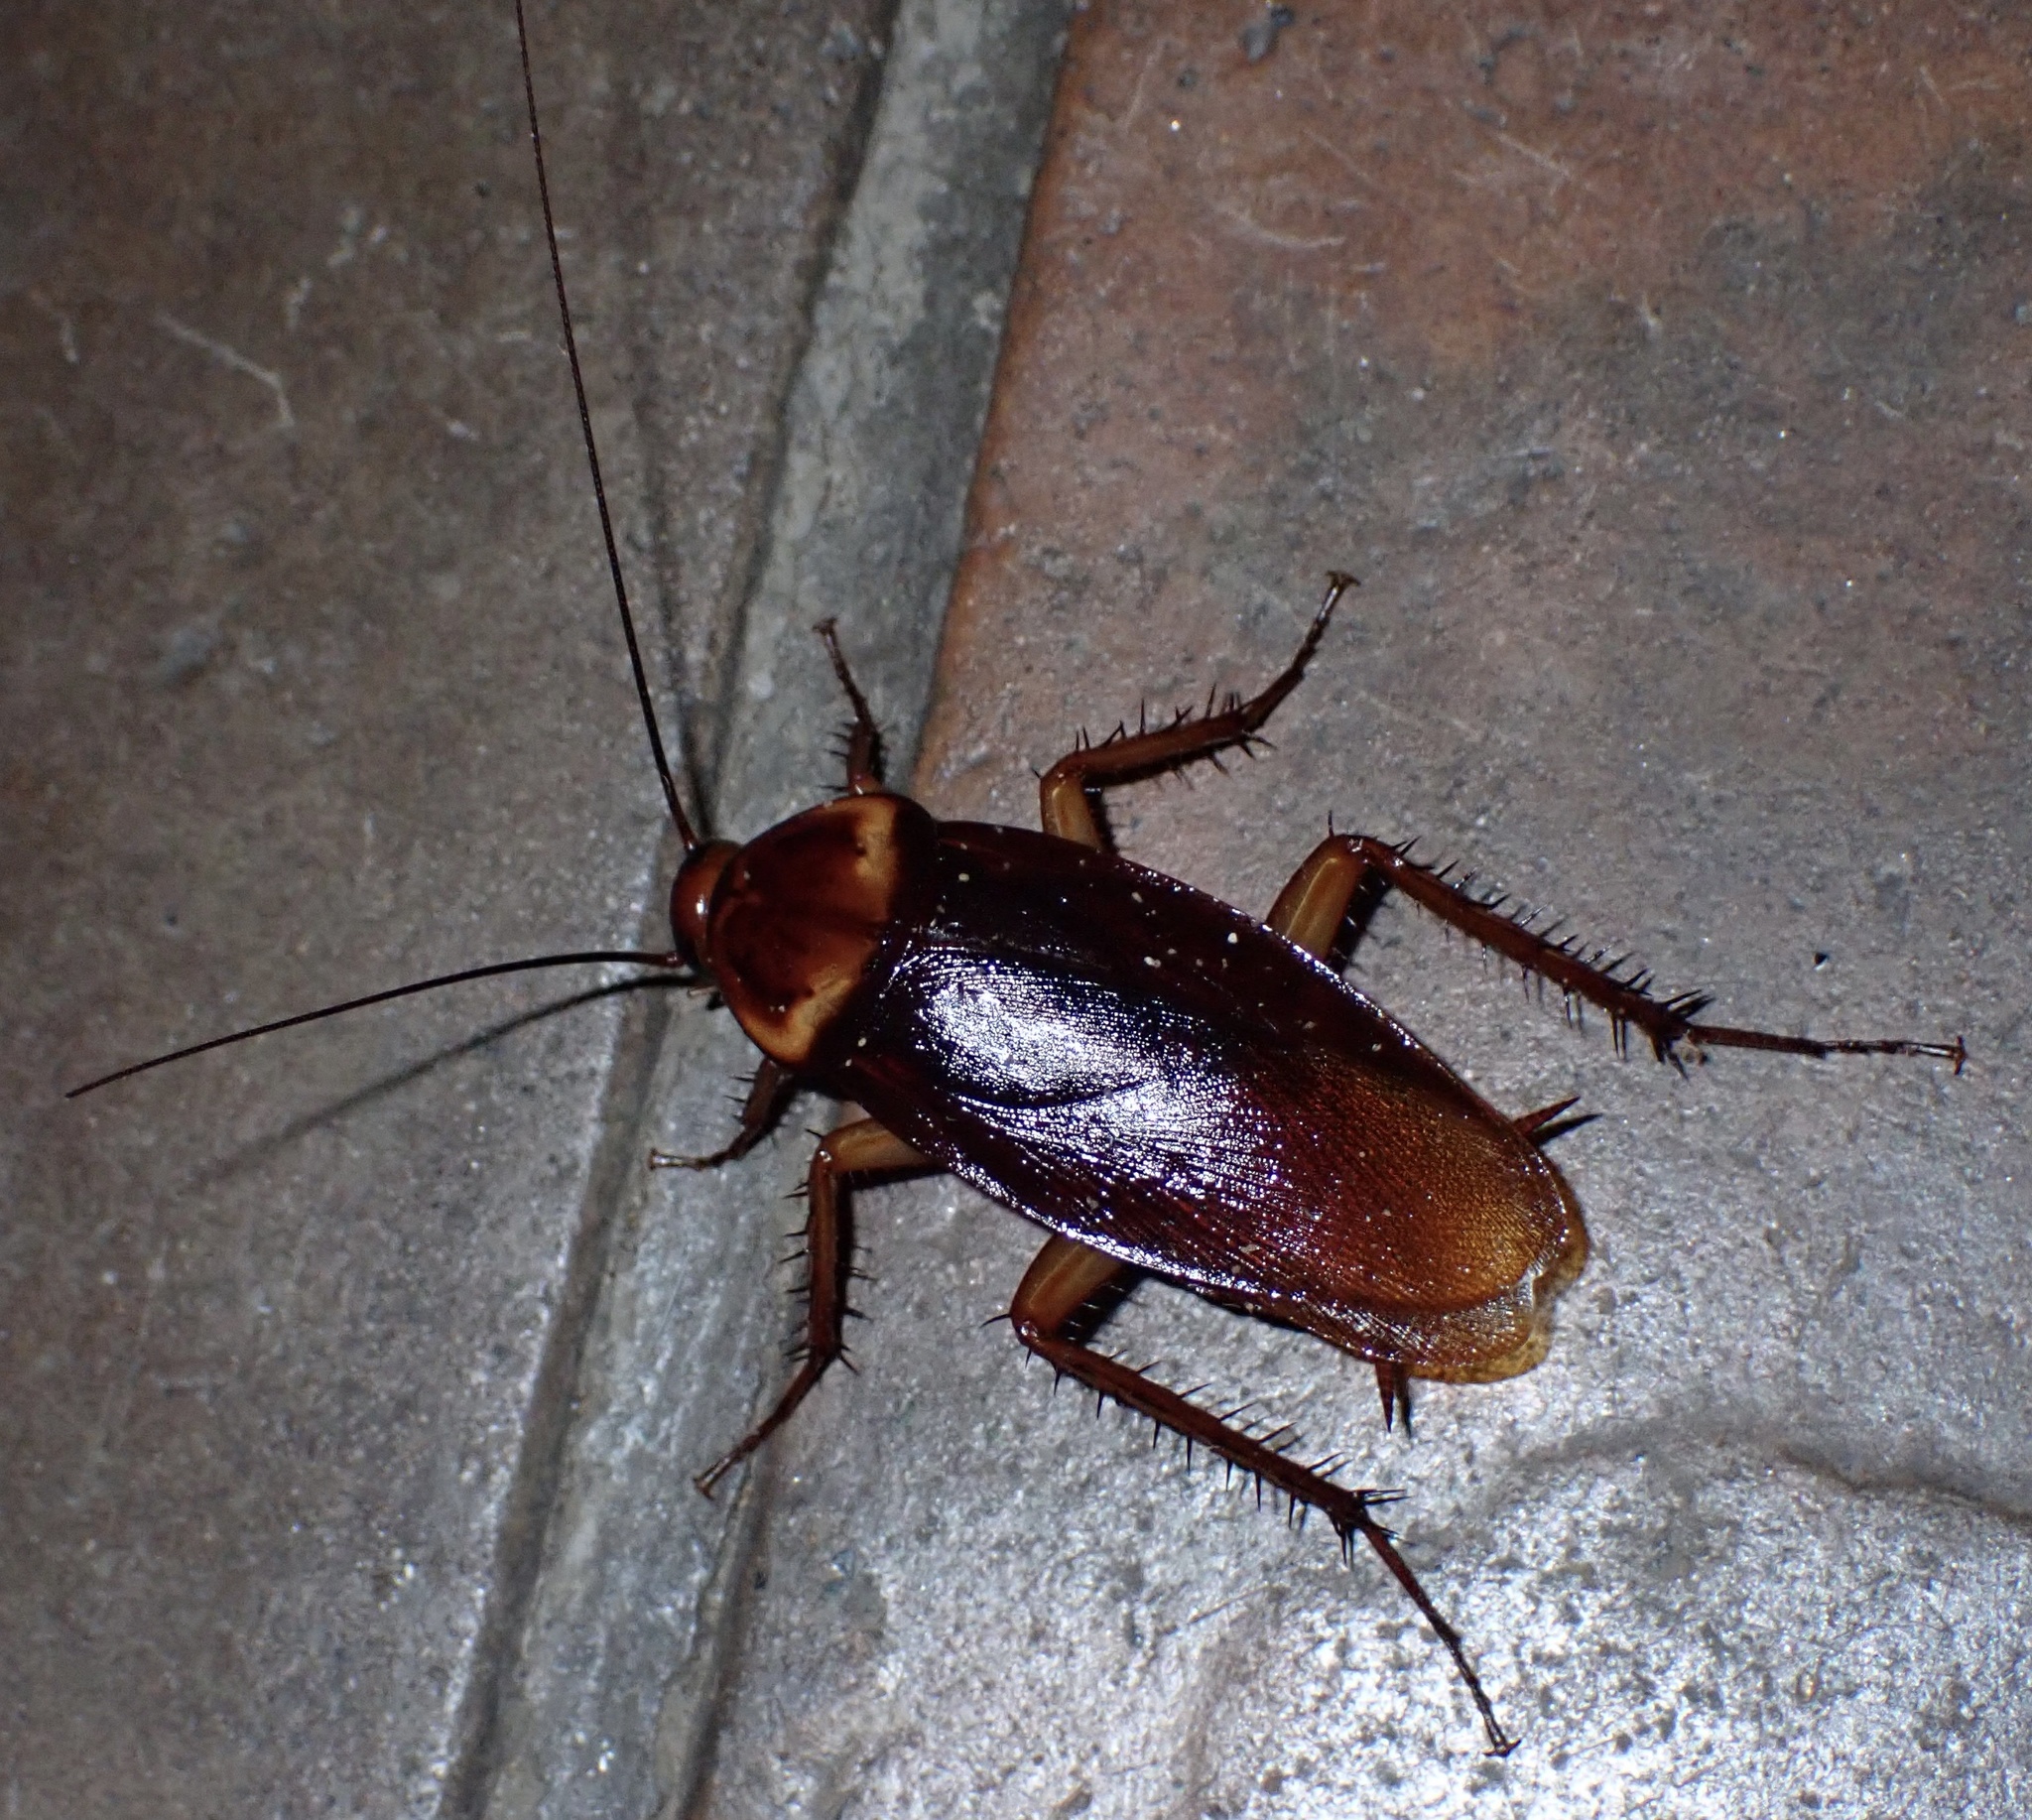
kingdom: Animalia
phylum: Arthropoda
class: Insecta
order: Blattodea
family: Blattidae
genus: Periplaneta
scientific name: Periplaneta americana
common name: American cockroach
